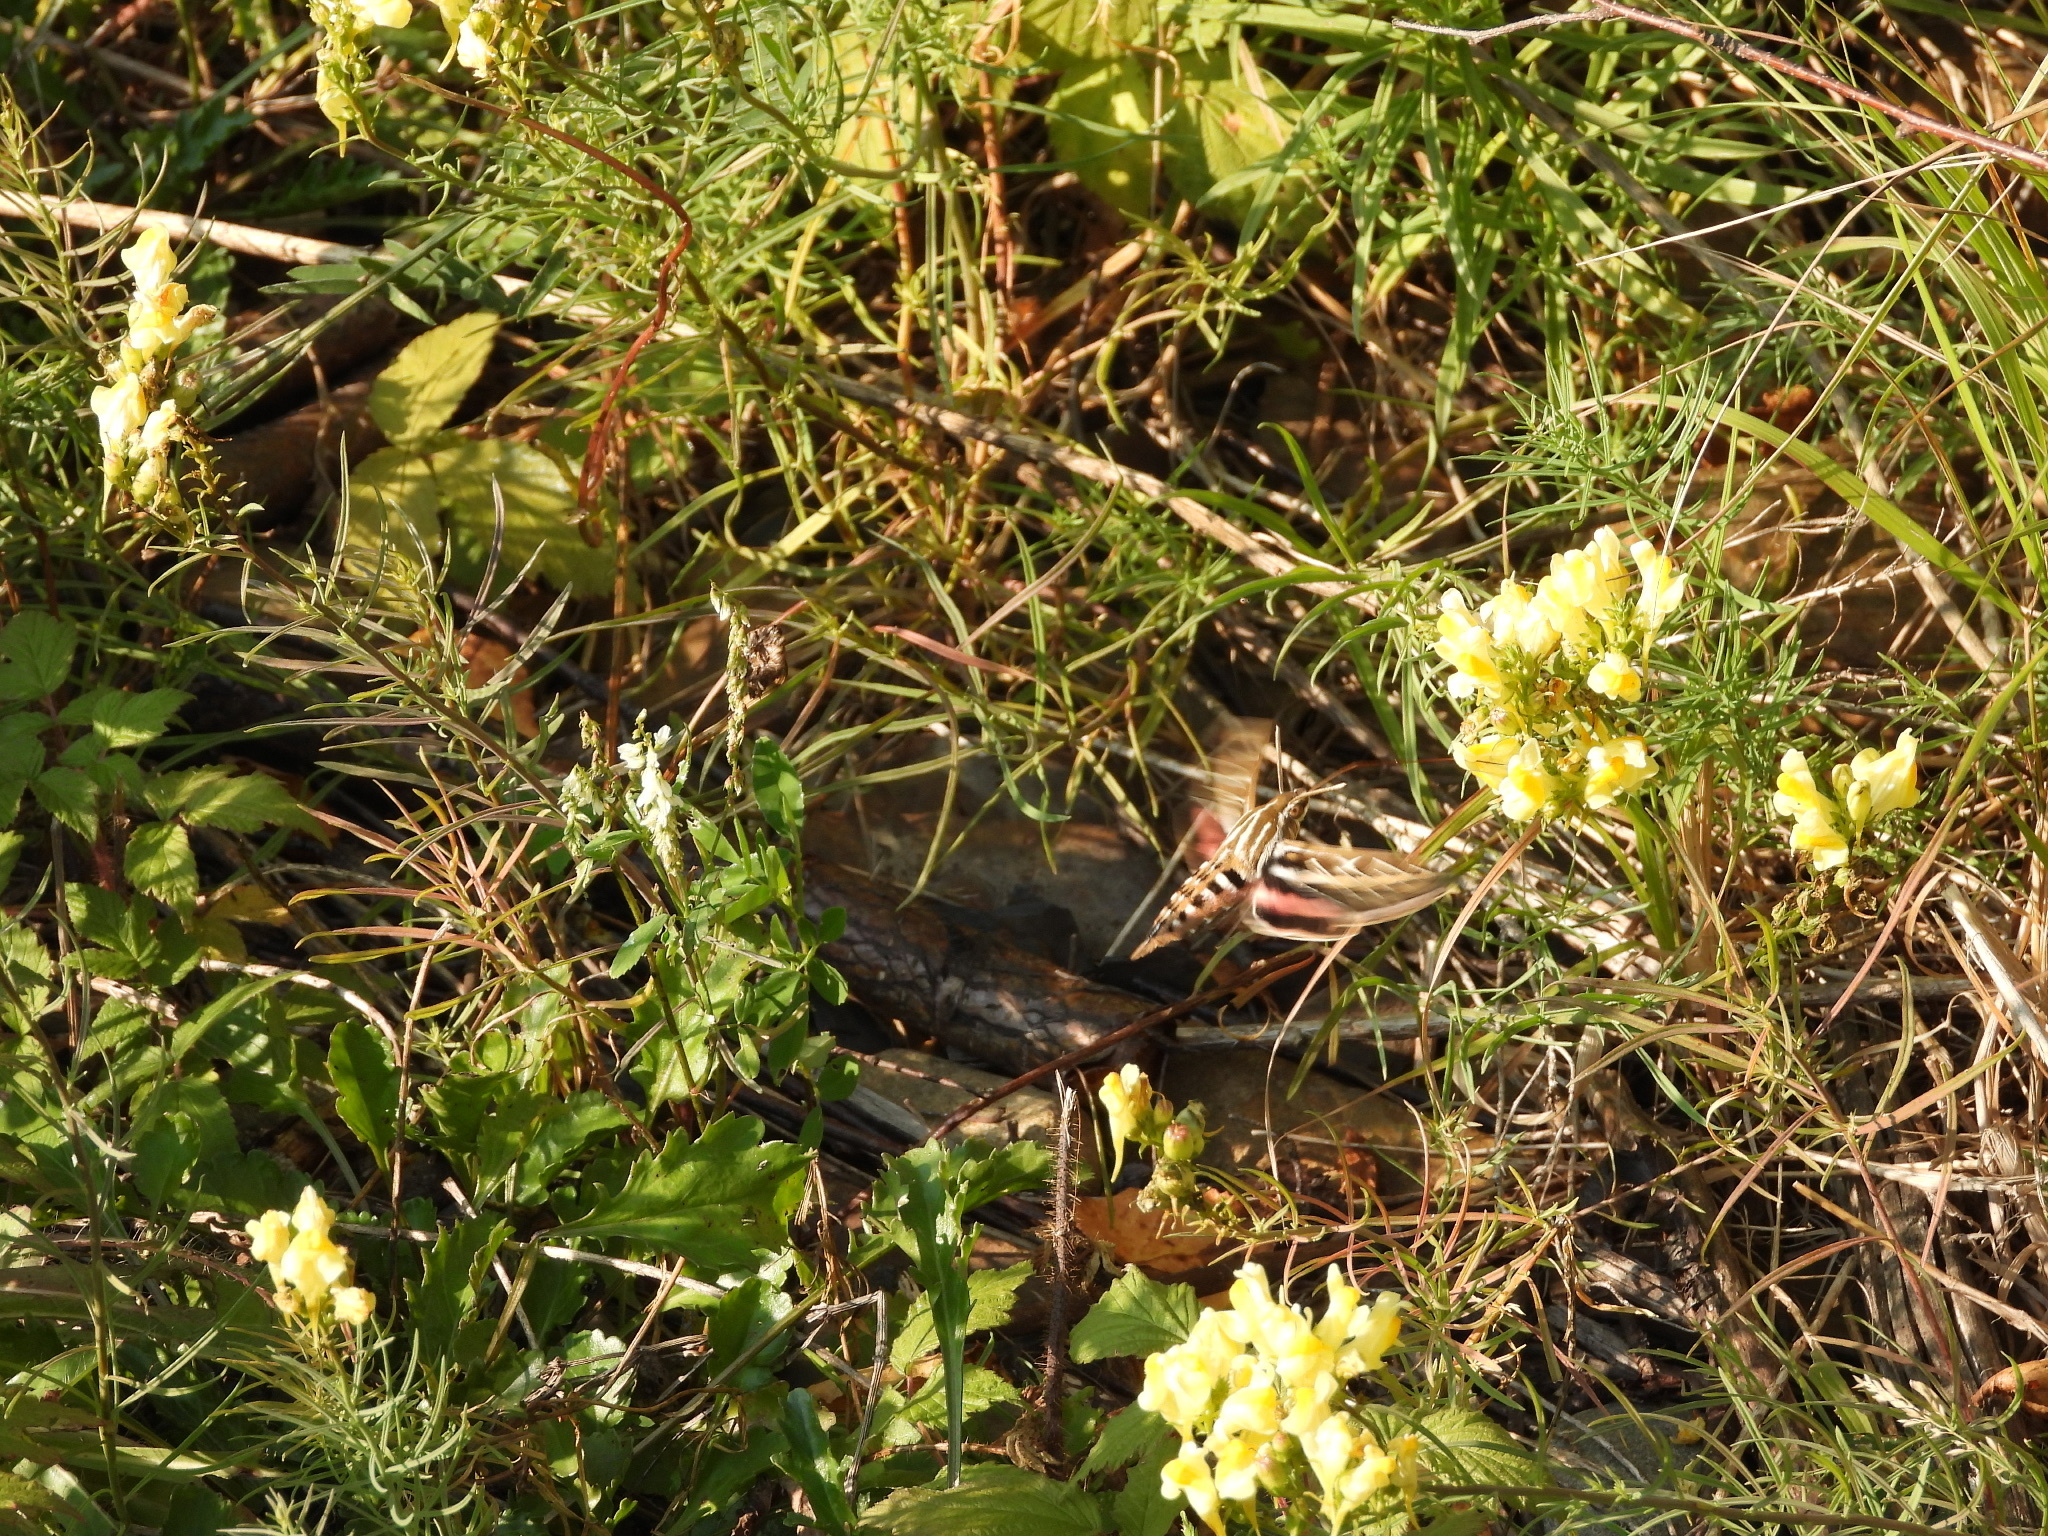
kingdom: Animalia
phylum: Arthropoda
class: Insecta
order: Lepidoptera
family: Sphingidae
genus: Hyles
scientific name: Hyles lineata
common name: White-lined sphinx
